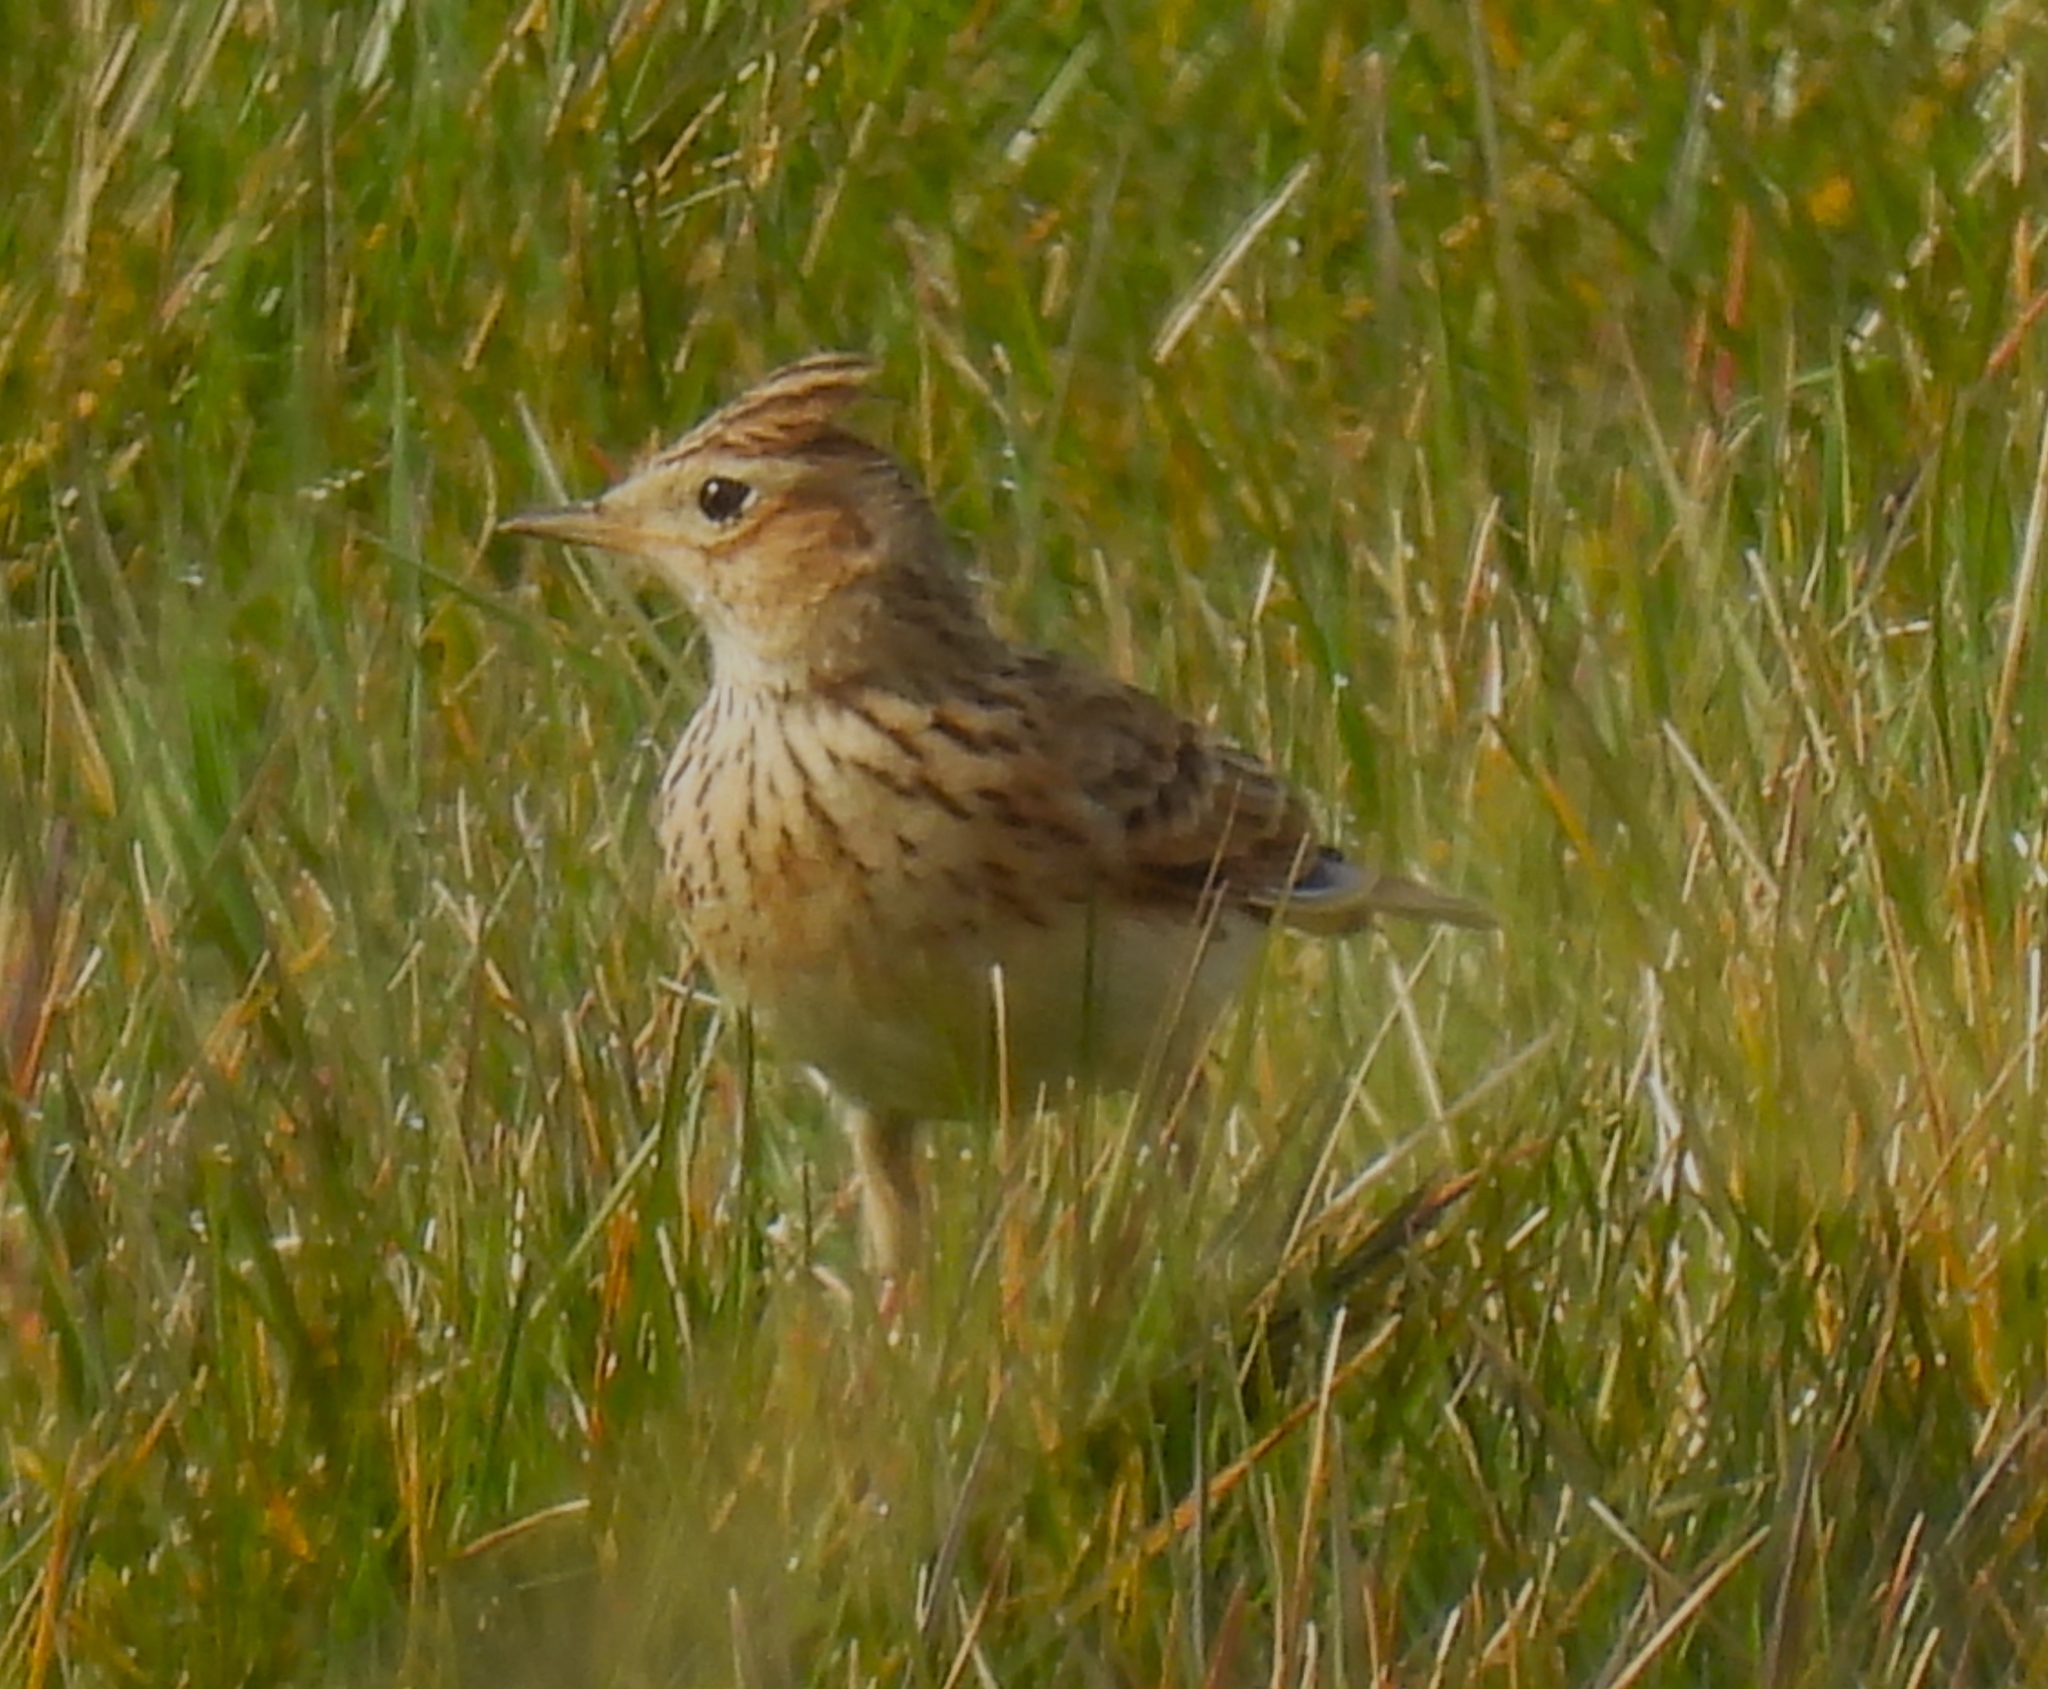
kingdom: Animalia
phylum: Chordata
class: Aves
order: Passeriformes
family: Alaudidae
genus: Alauda
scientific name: Alauda arvensis
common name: Eurasian skylark
